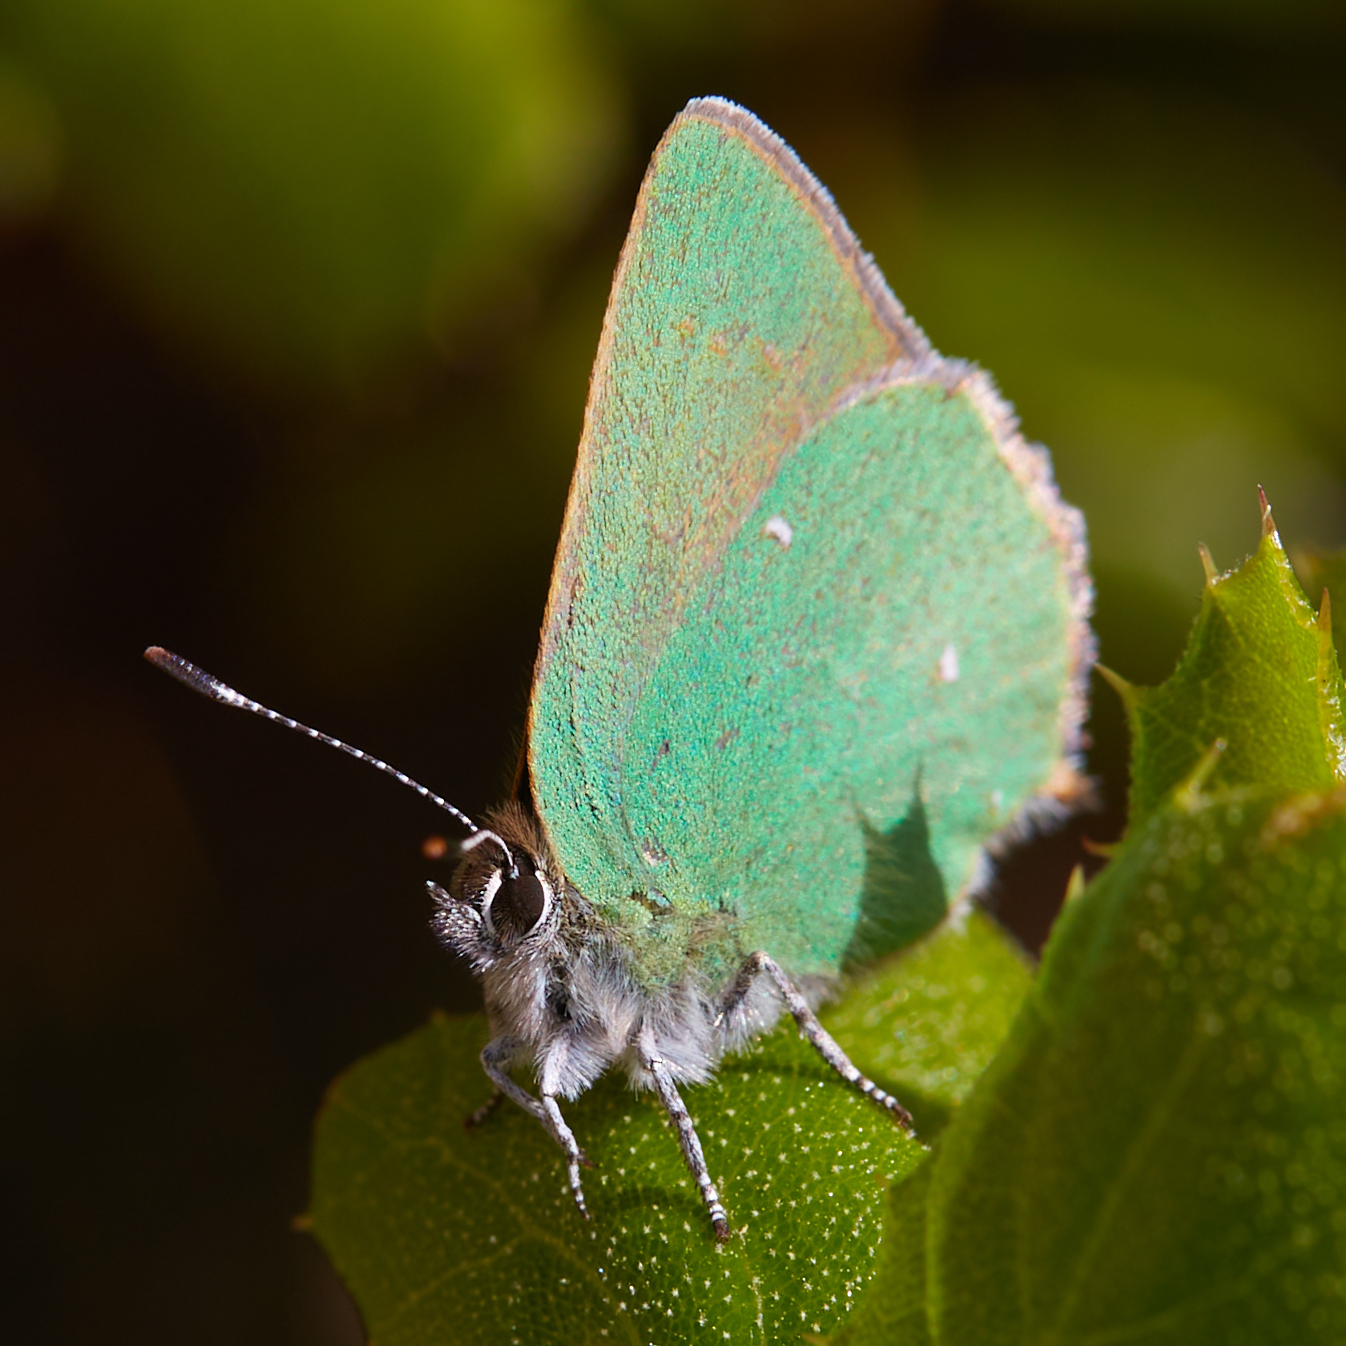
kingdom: Animalia
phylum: Arthropoda
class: Insecta
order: Lepidoptera
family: Lycaenidae
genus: Callophrys
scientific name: Callophrys dumetorum
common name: Bramble hairstreak
